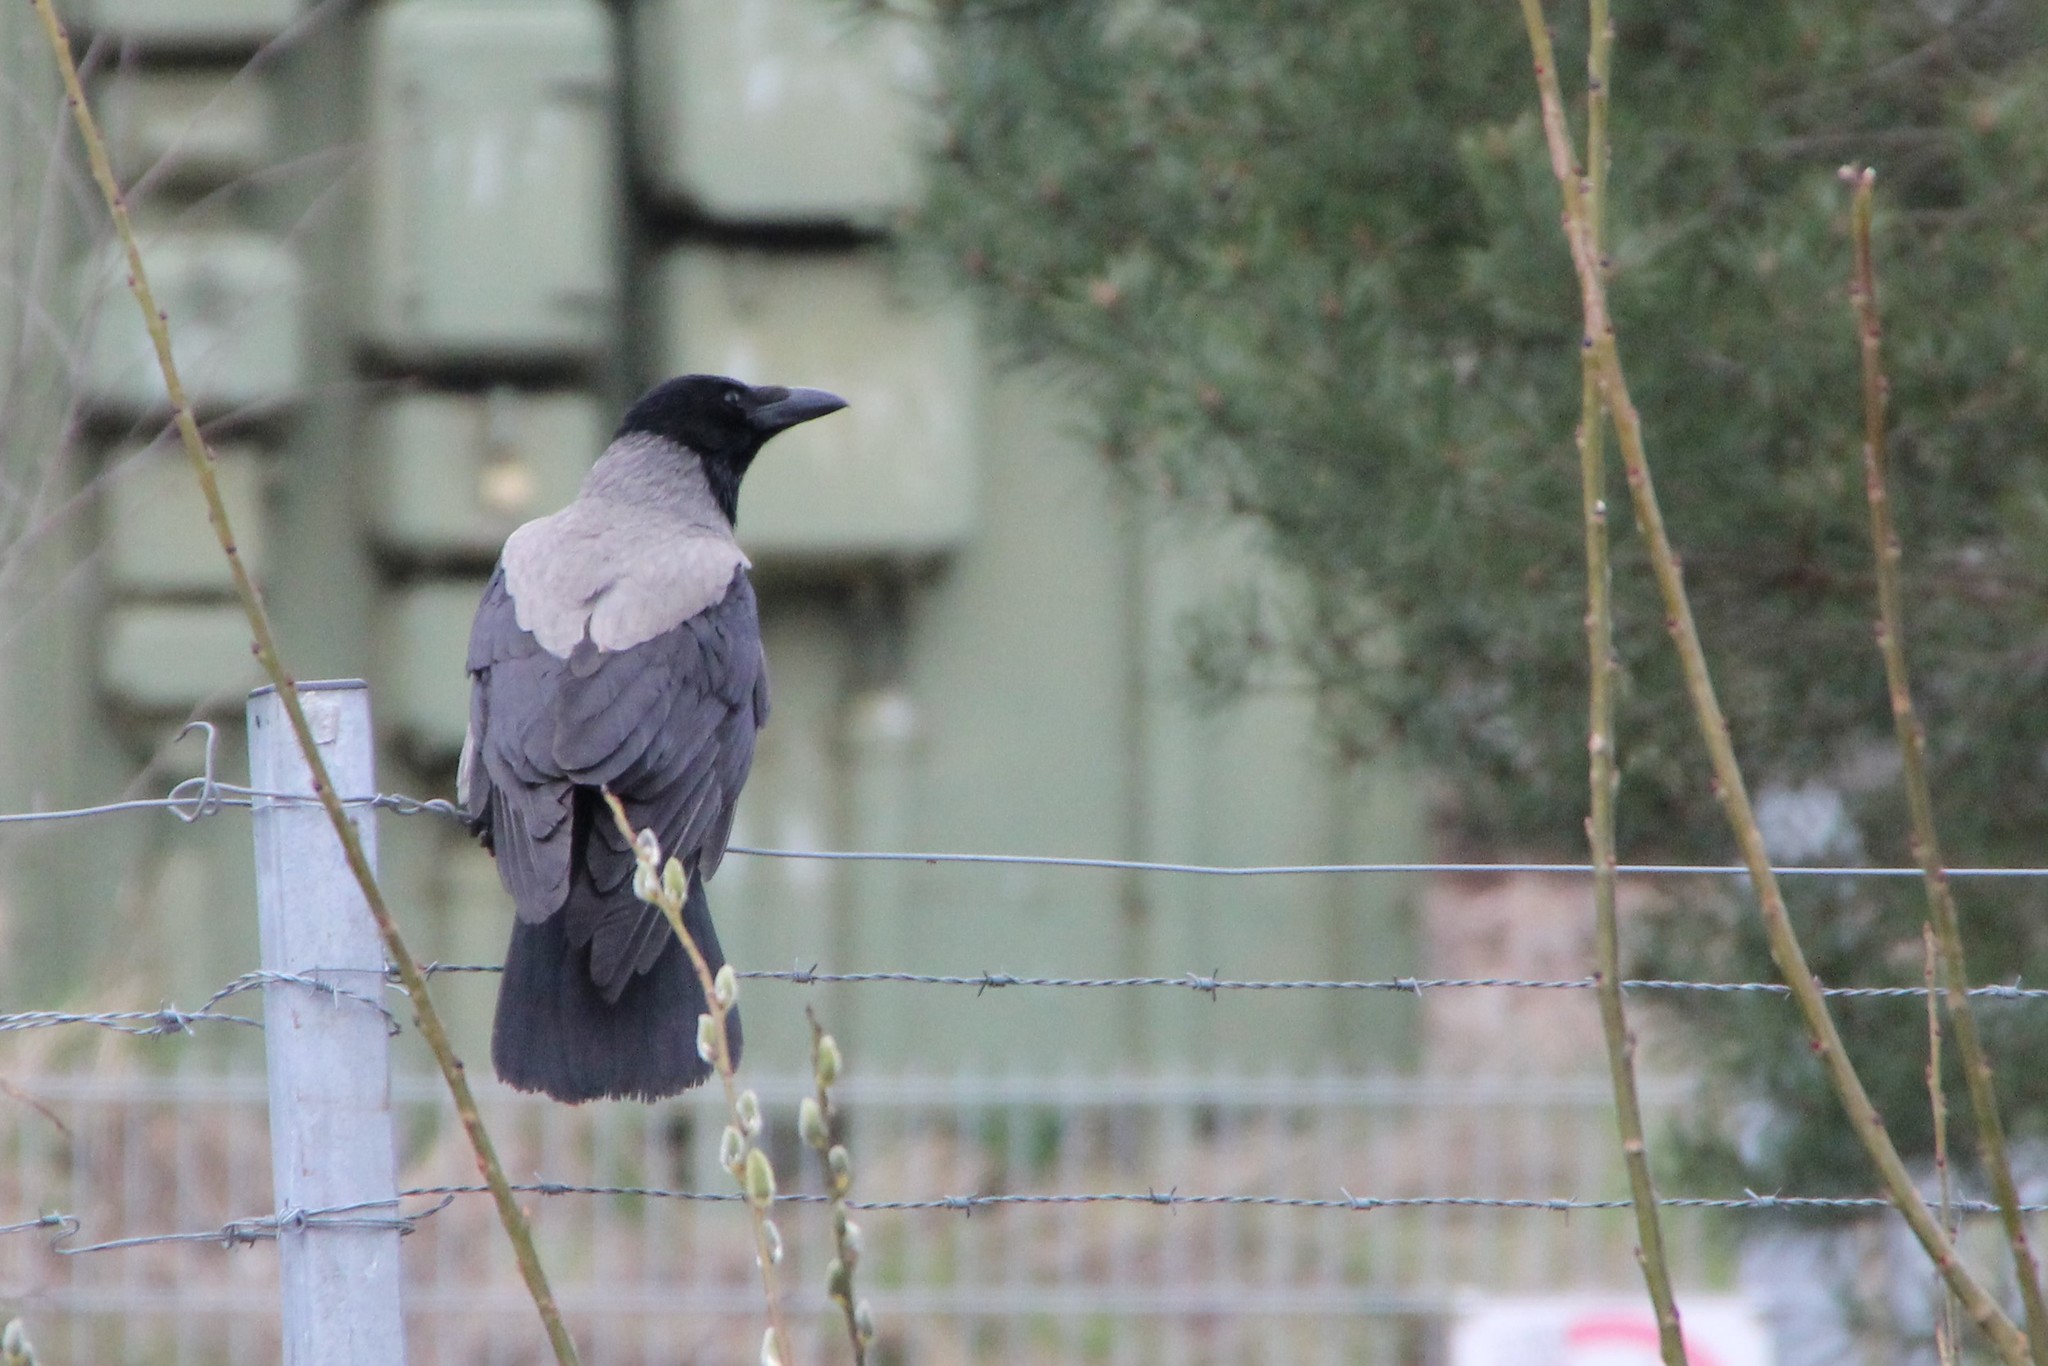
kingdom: Animalia
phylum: Chordata
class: Aves
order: Passeriformes
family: Corvidae
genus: Corvus
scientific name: Corvus cornix
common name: Hooded crow
